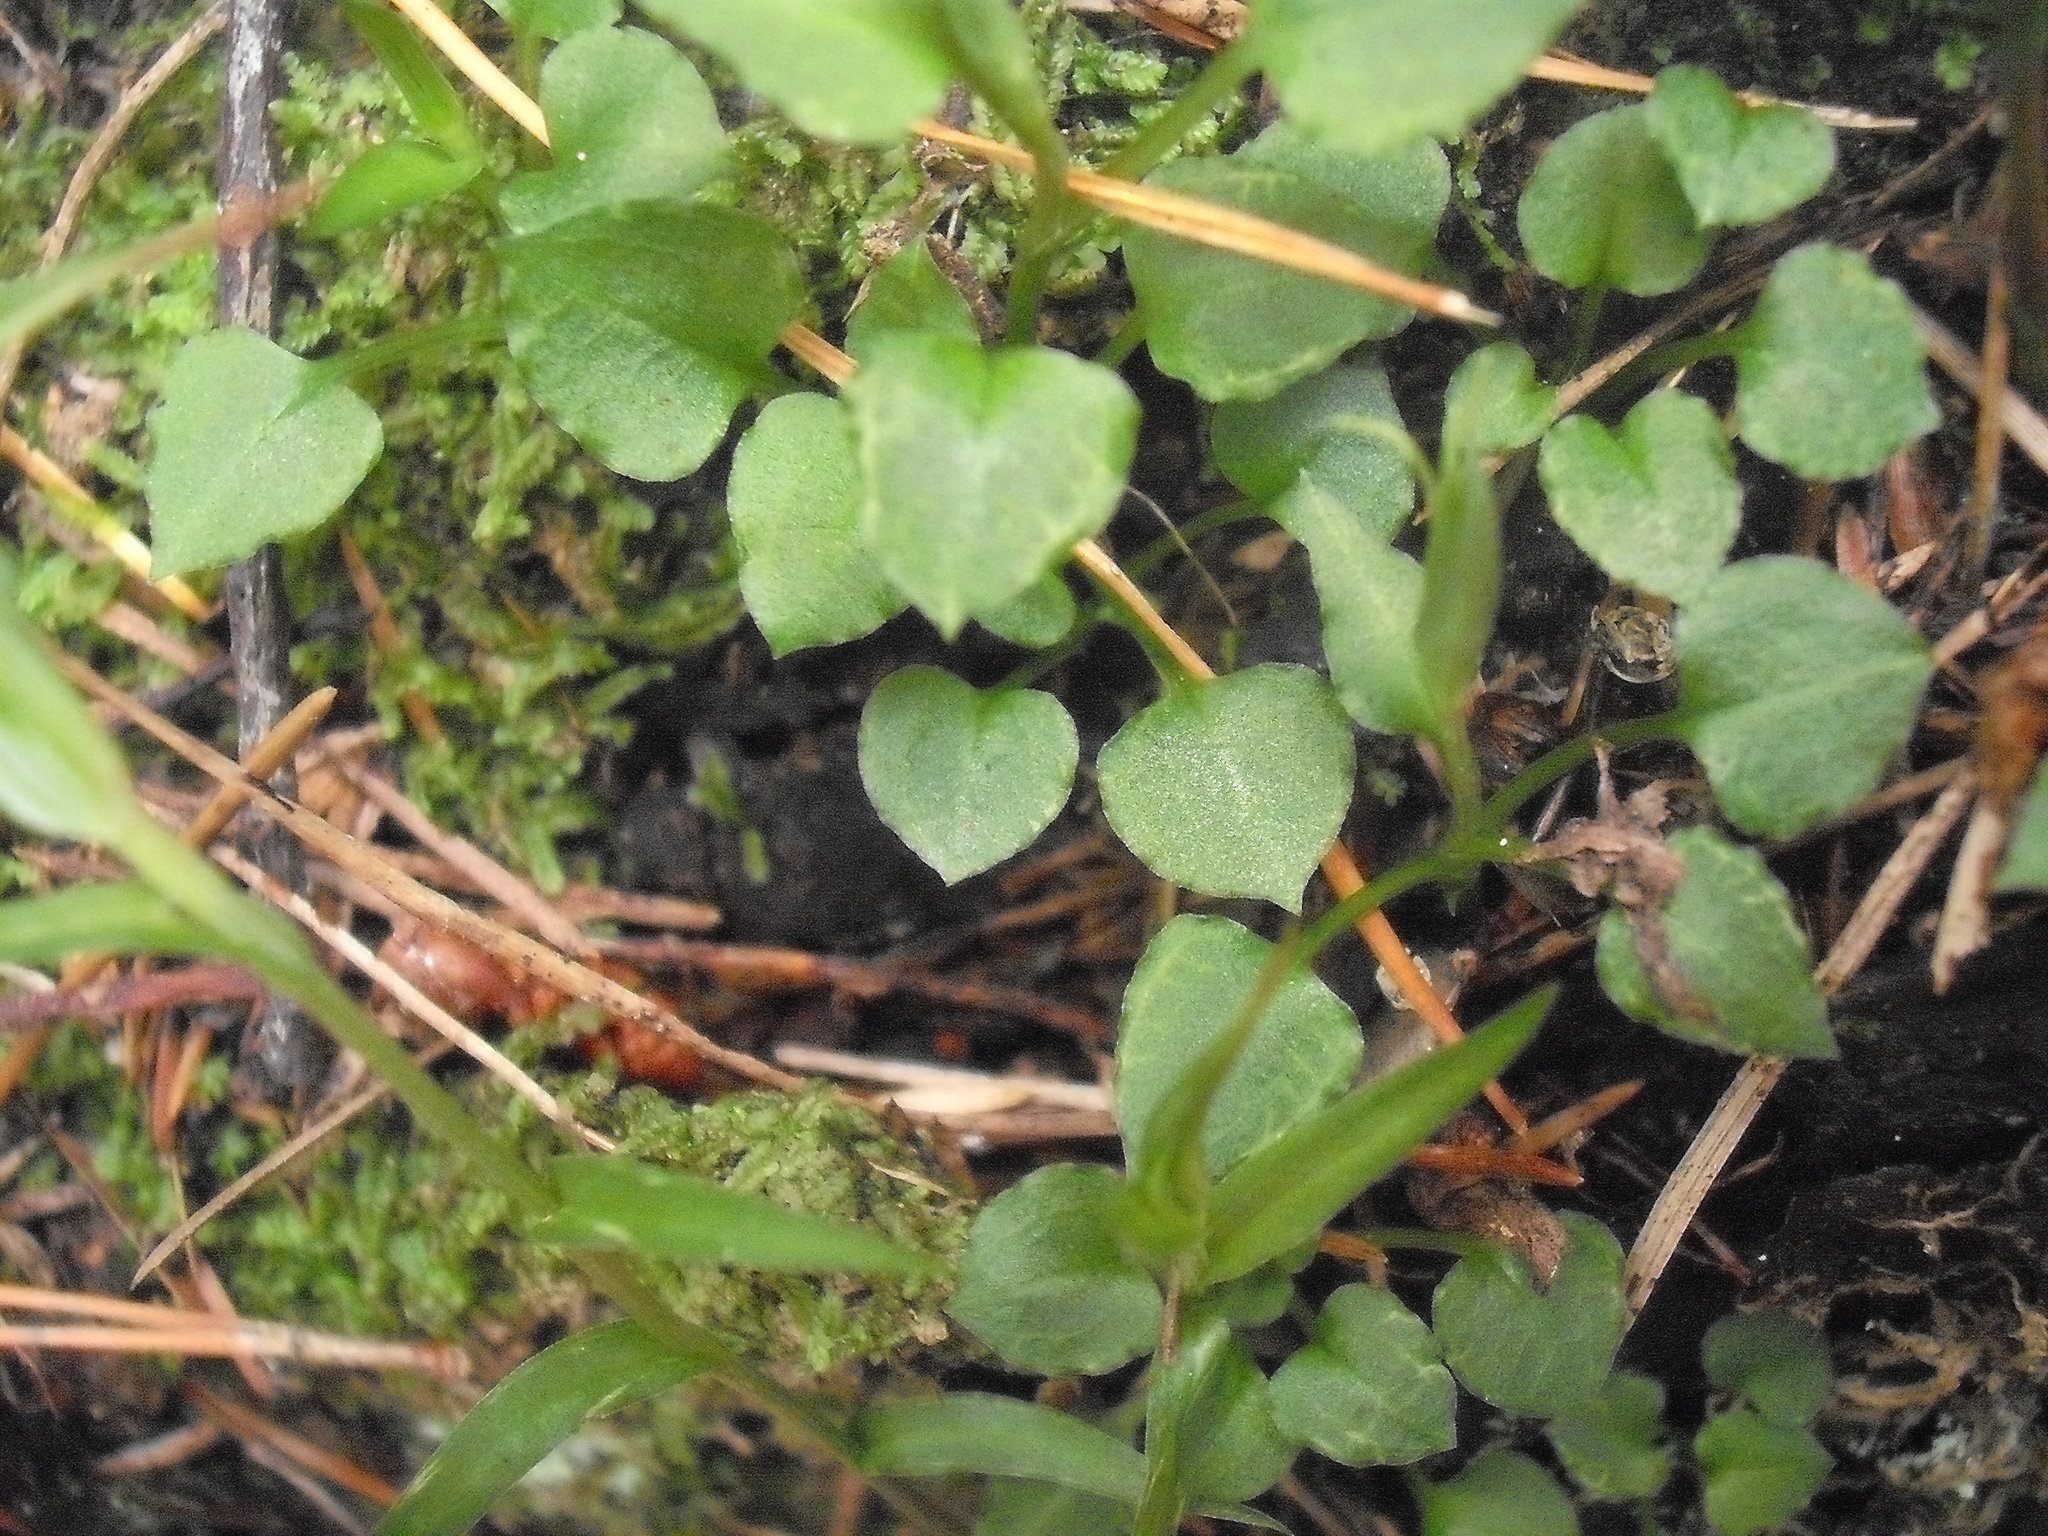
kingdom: Plantae
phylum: Tracheophyta
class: Liliopsida
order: Asparagales
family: Orchidaceae
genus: Pterostylis
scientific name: Pterostylis alobula
